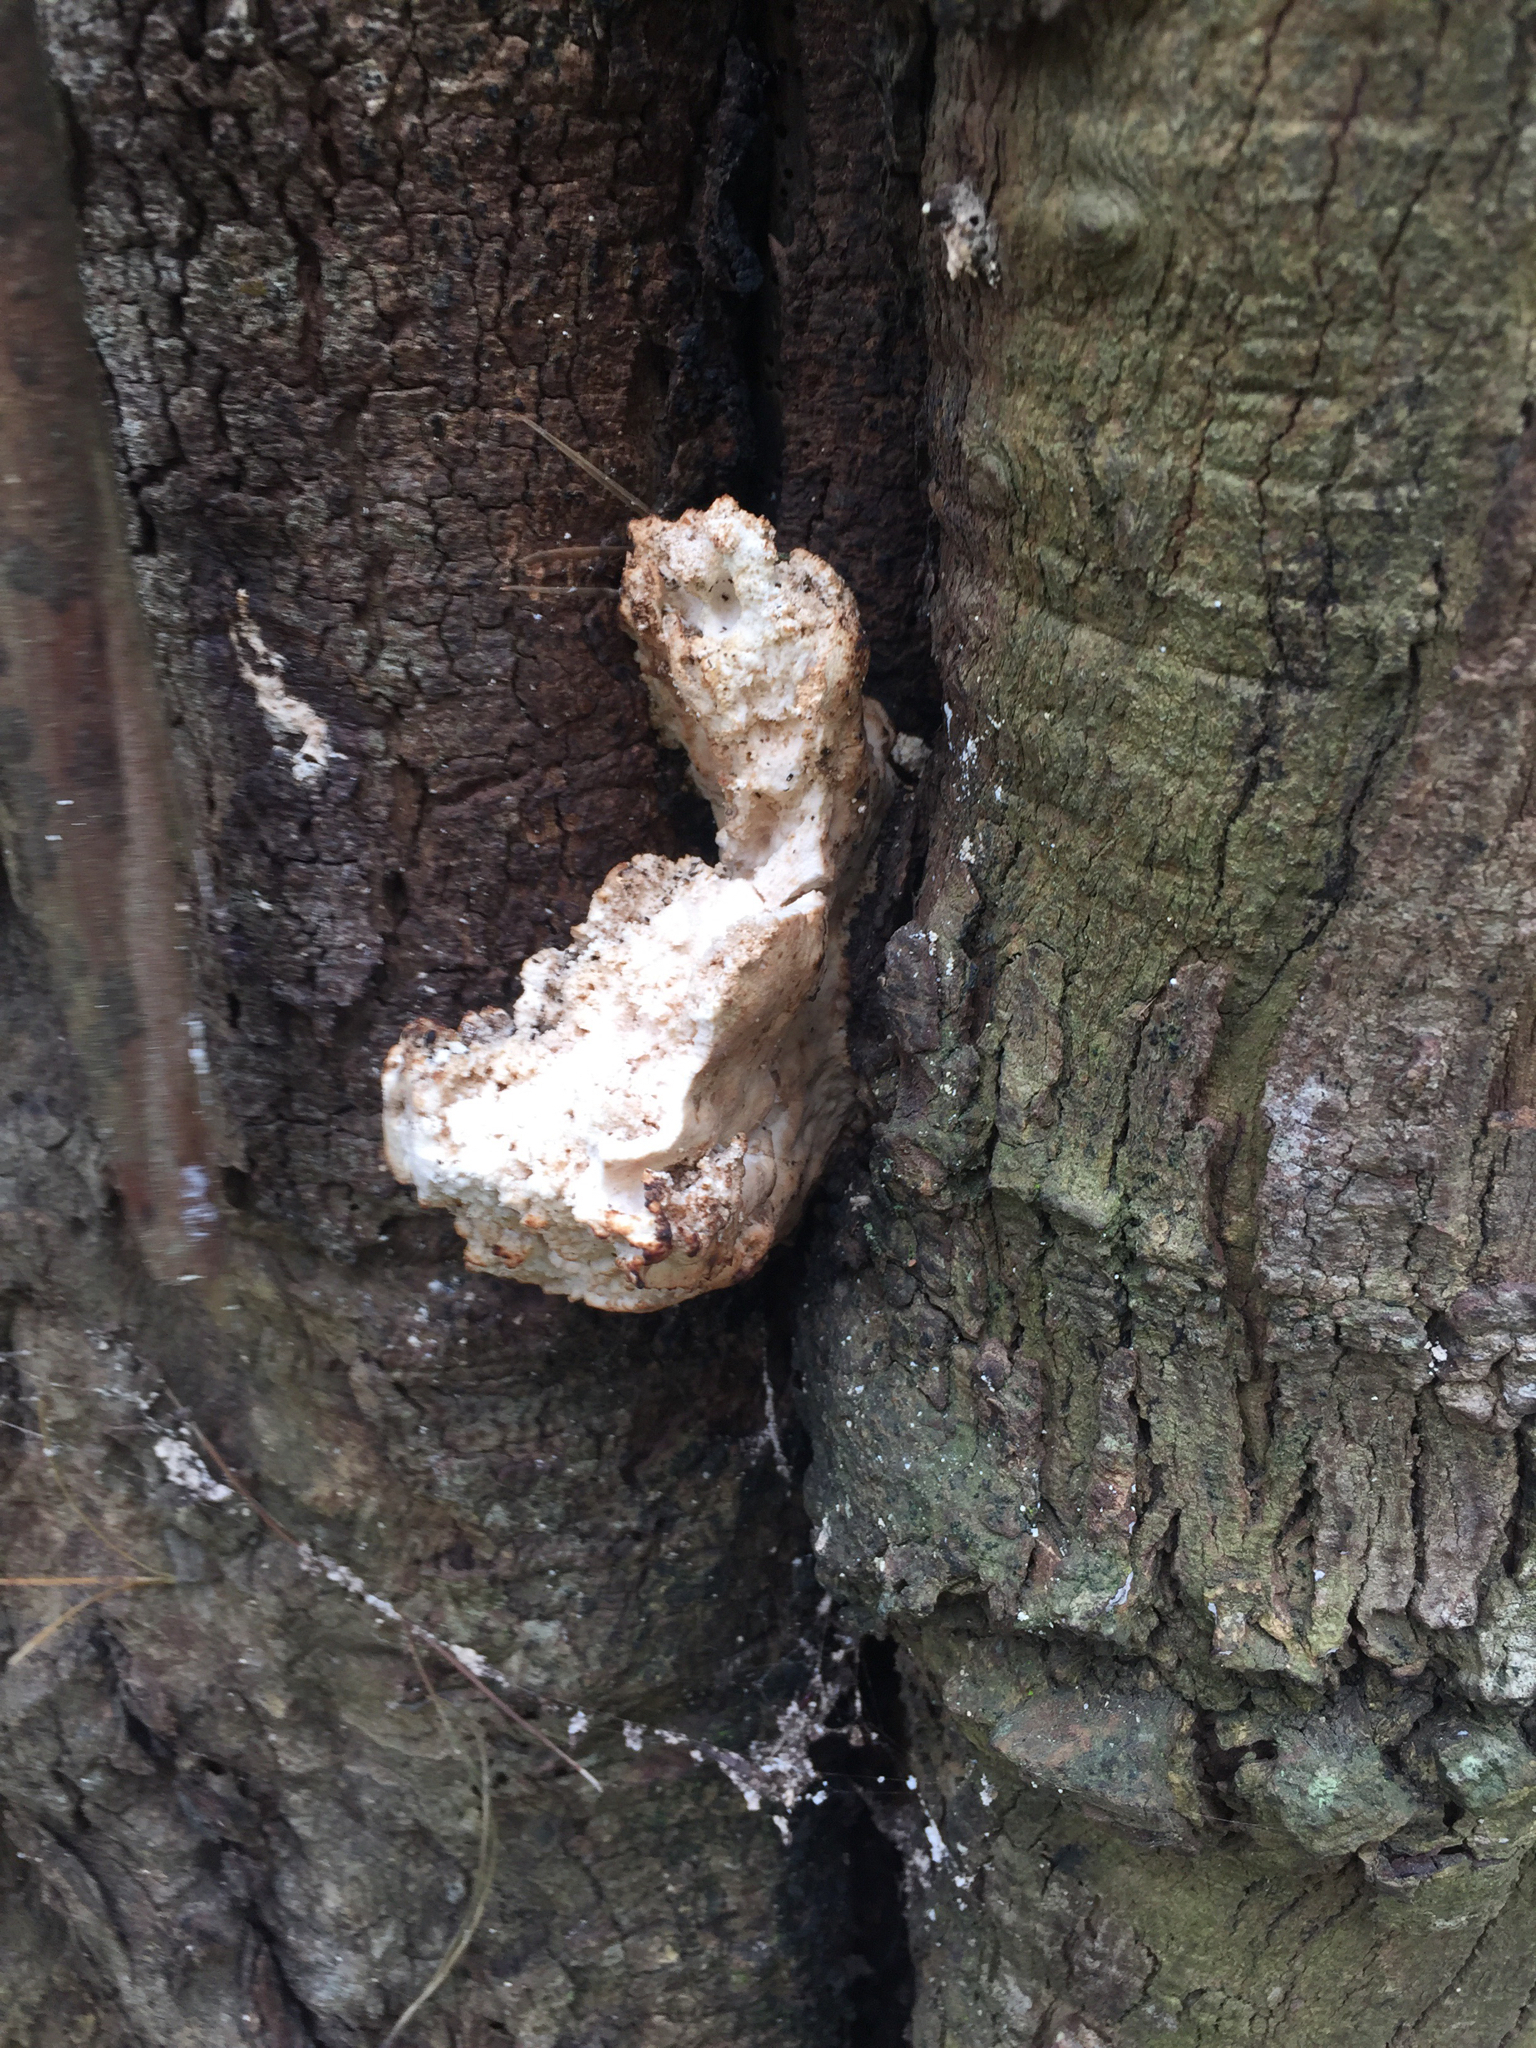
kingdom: Fungi
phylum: Basidiomycota
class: Agaricomycetes
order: Polyporales
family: Laetiporaceae
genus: Laetiporus
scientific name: Laetiporus gilbertsonii
